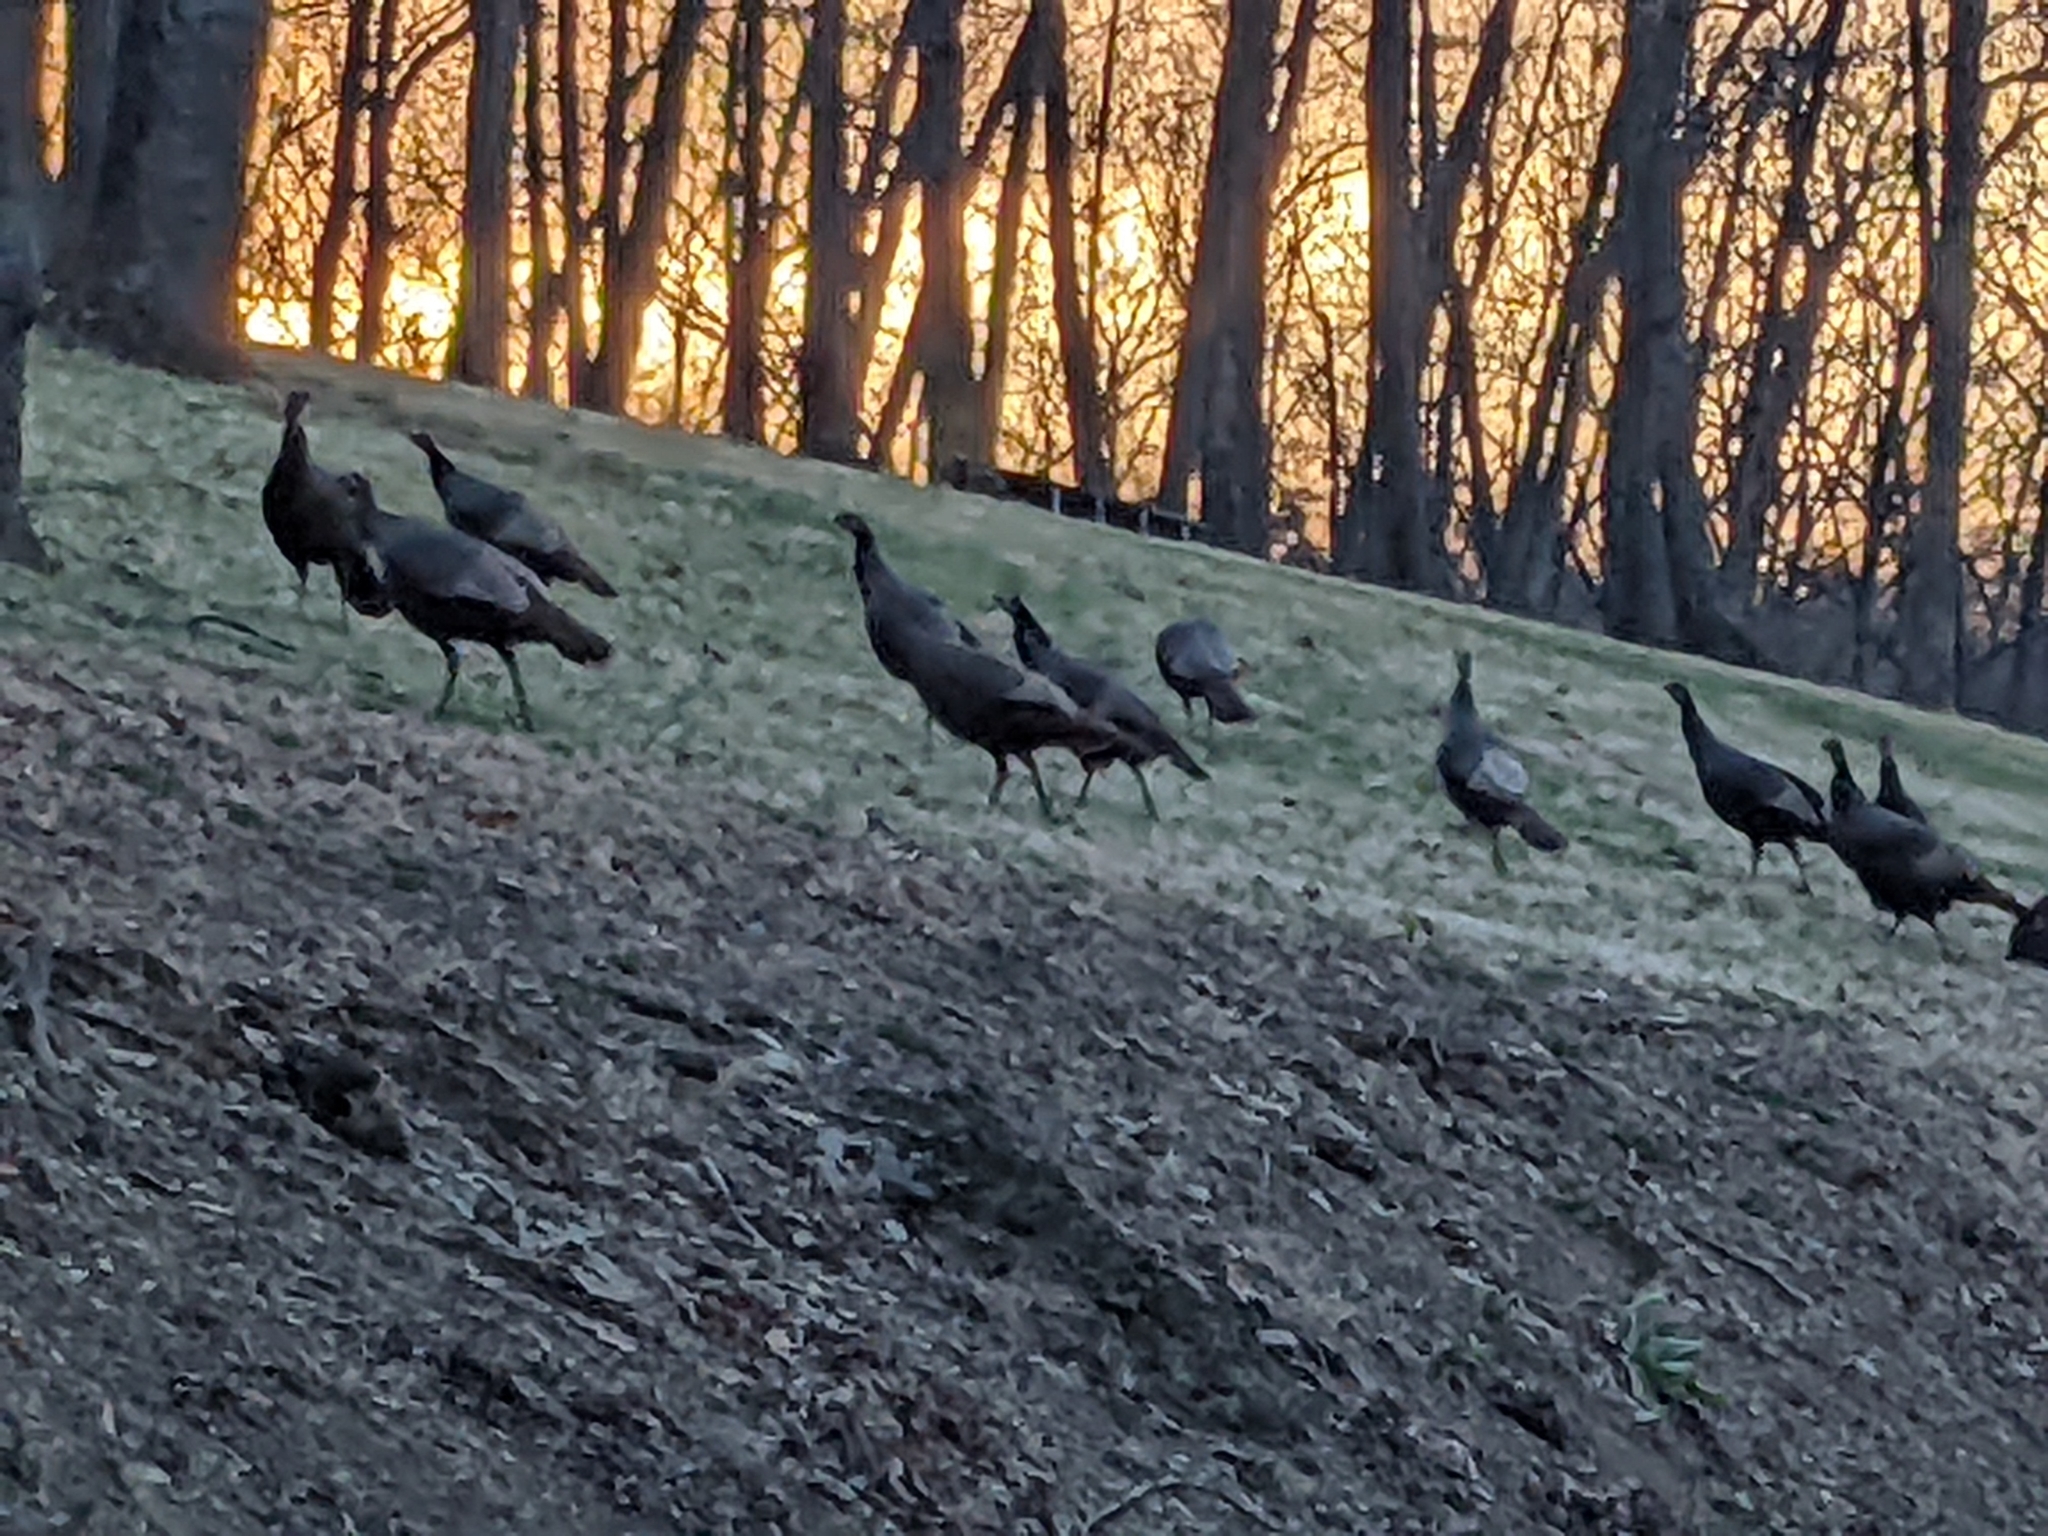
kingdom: Animalia
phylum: Chordata
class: Aves
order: Galliformes
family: Phasianidae
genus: Meleagris
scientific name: Meleagris gallopavo
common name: Wild turkey
